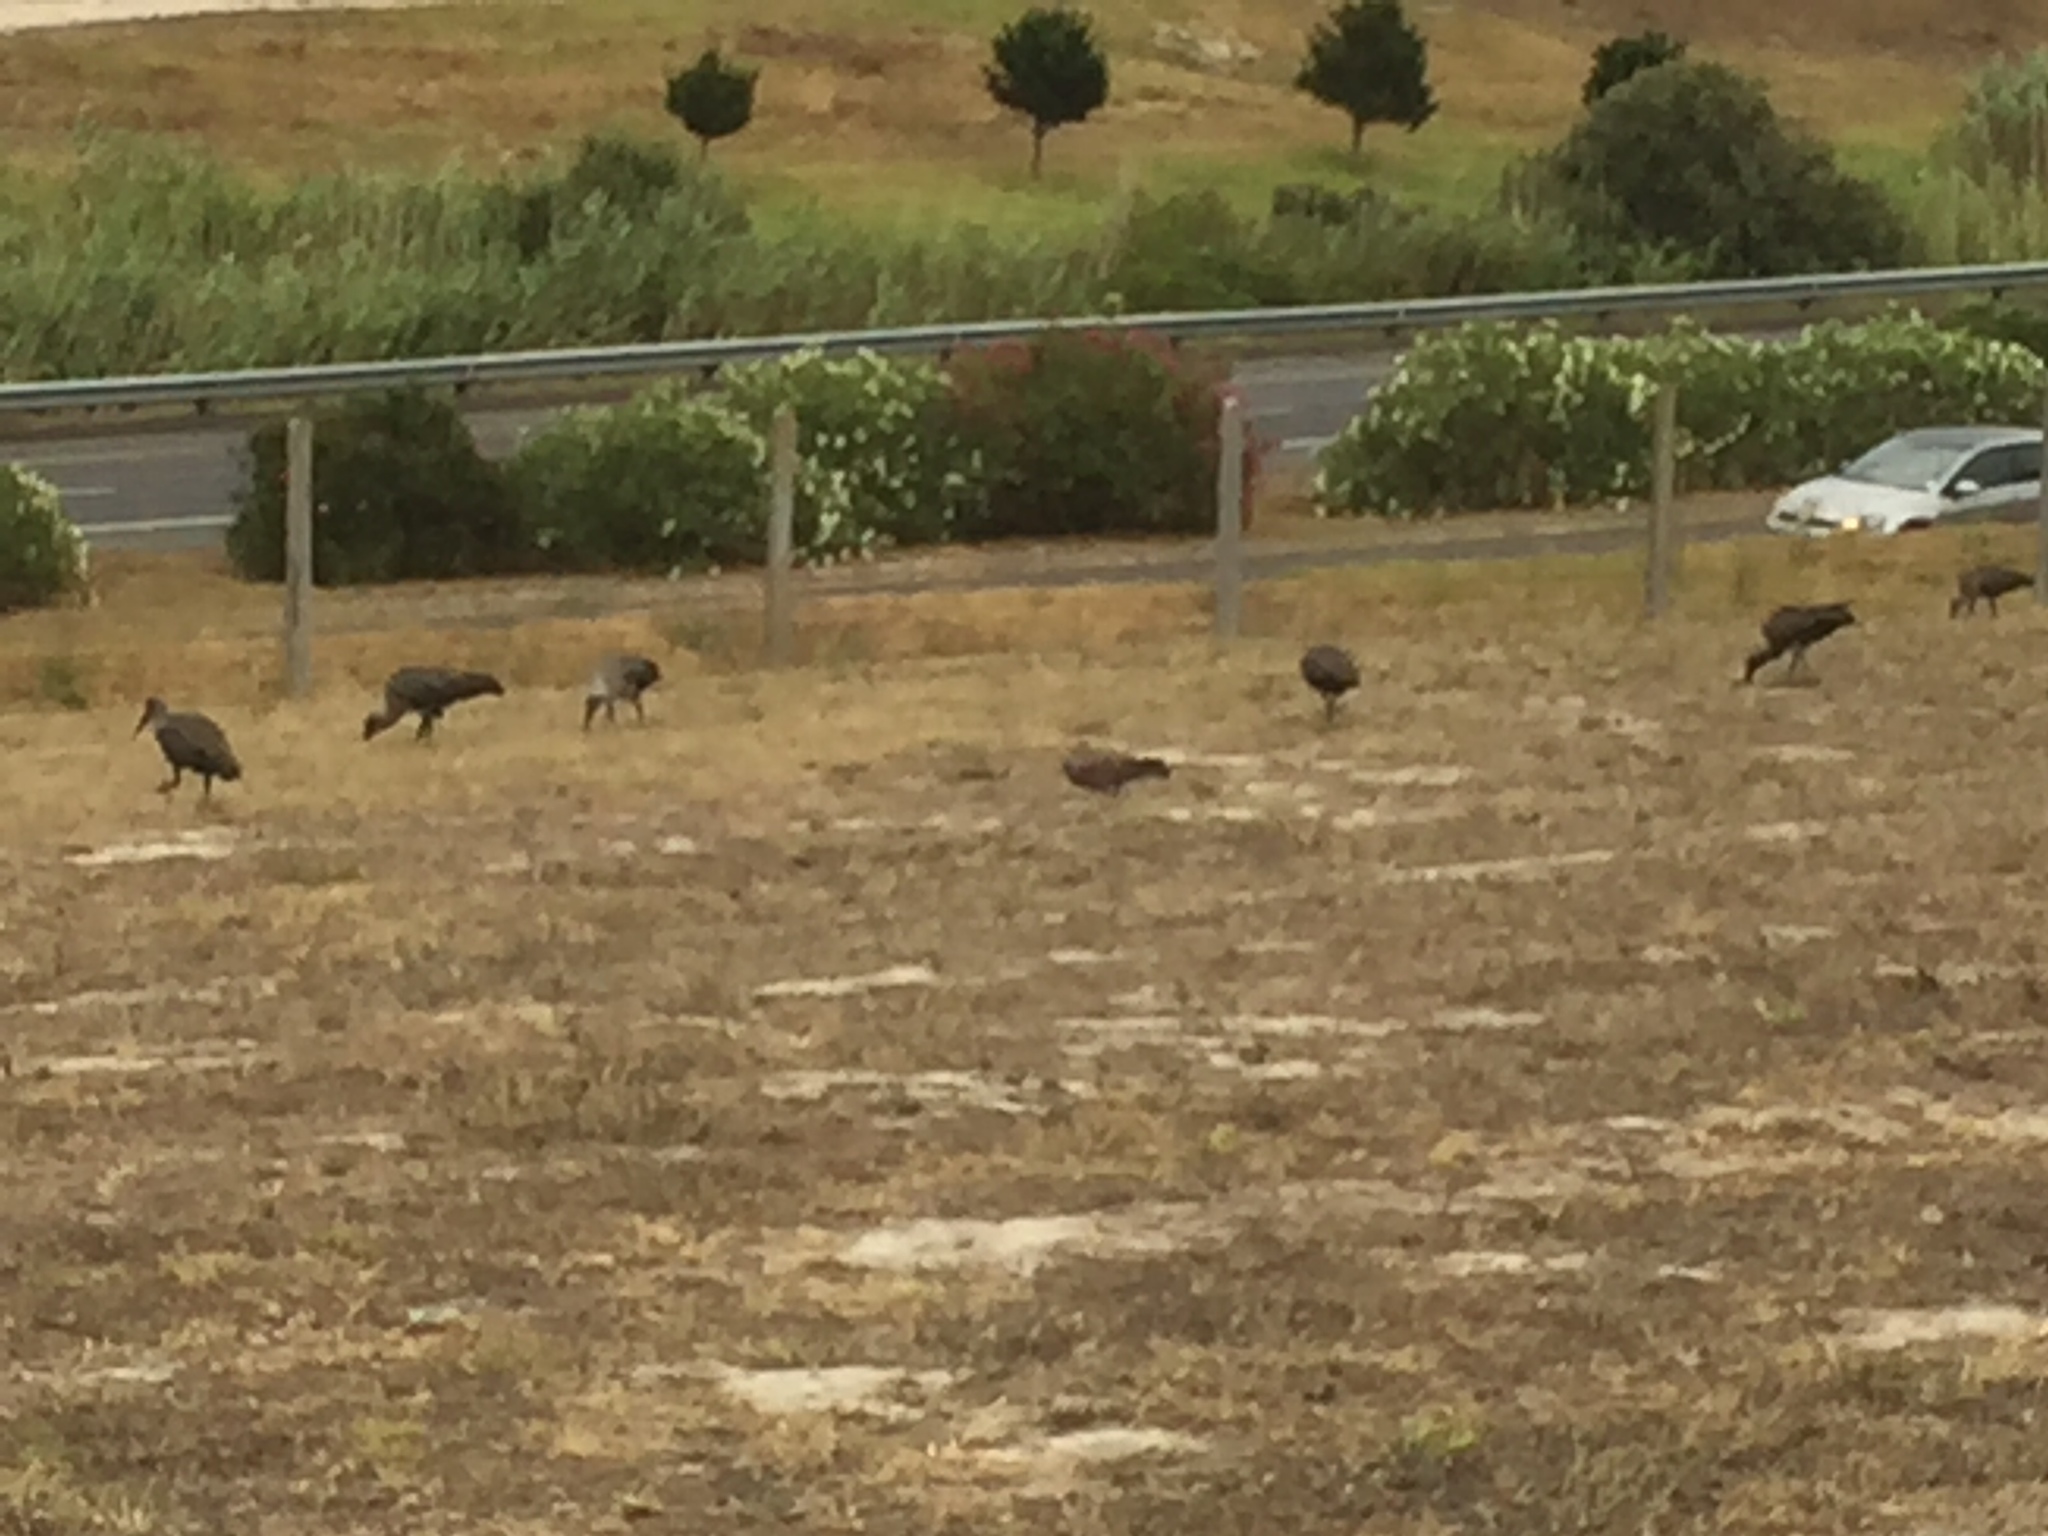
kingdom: Animalia
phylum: Chordata
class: Aves
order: Columbiformes
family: Columbidae
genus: Columba
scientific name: Columba guinea
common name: Speckled pigeon
